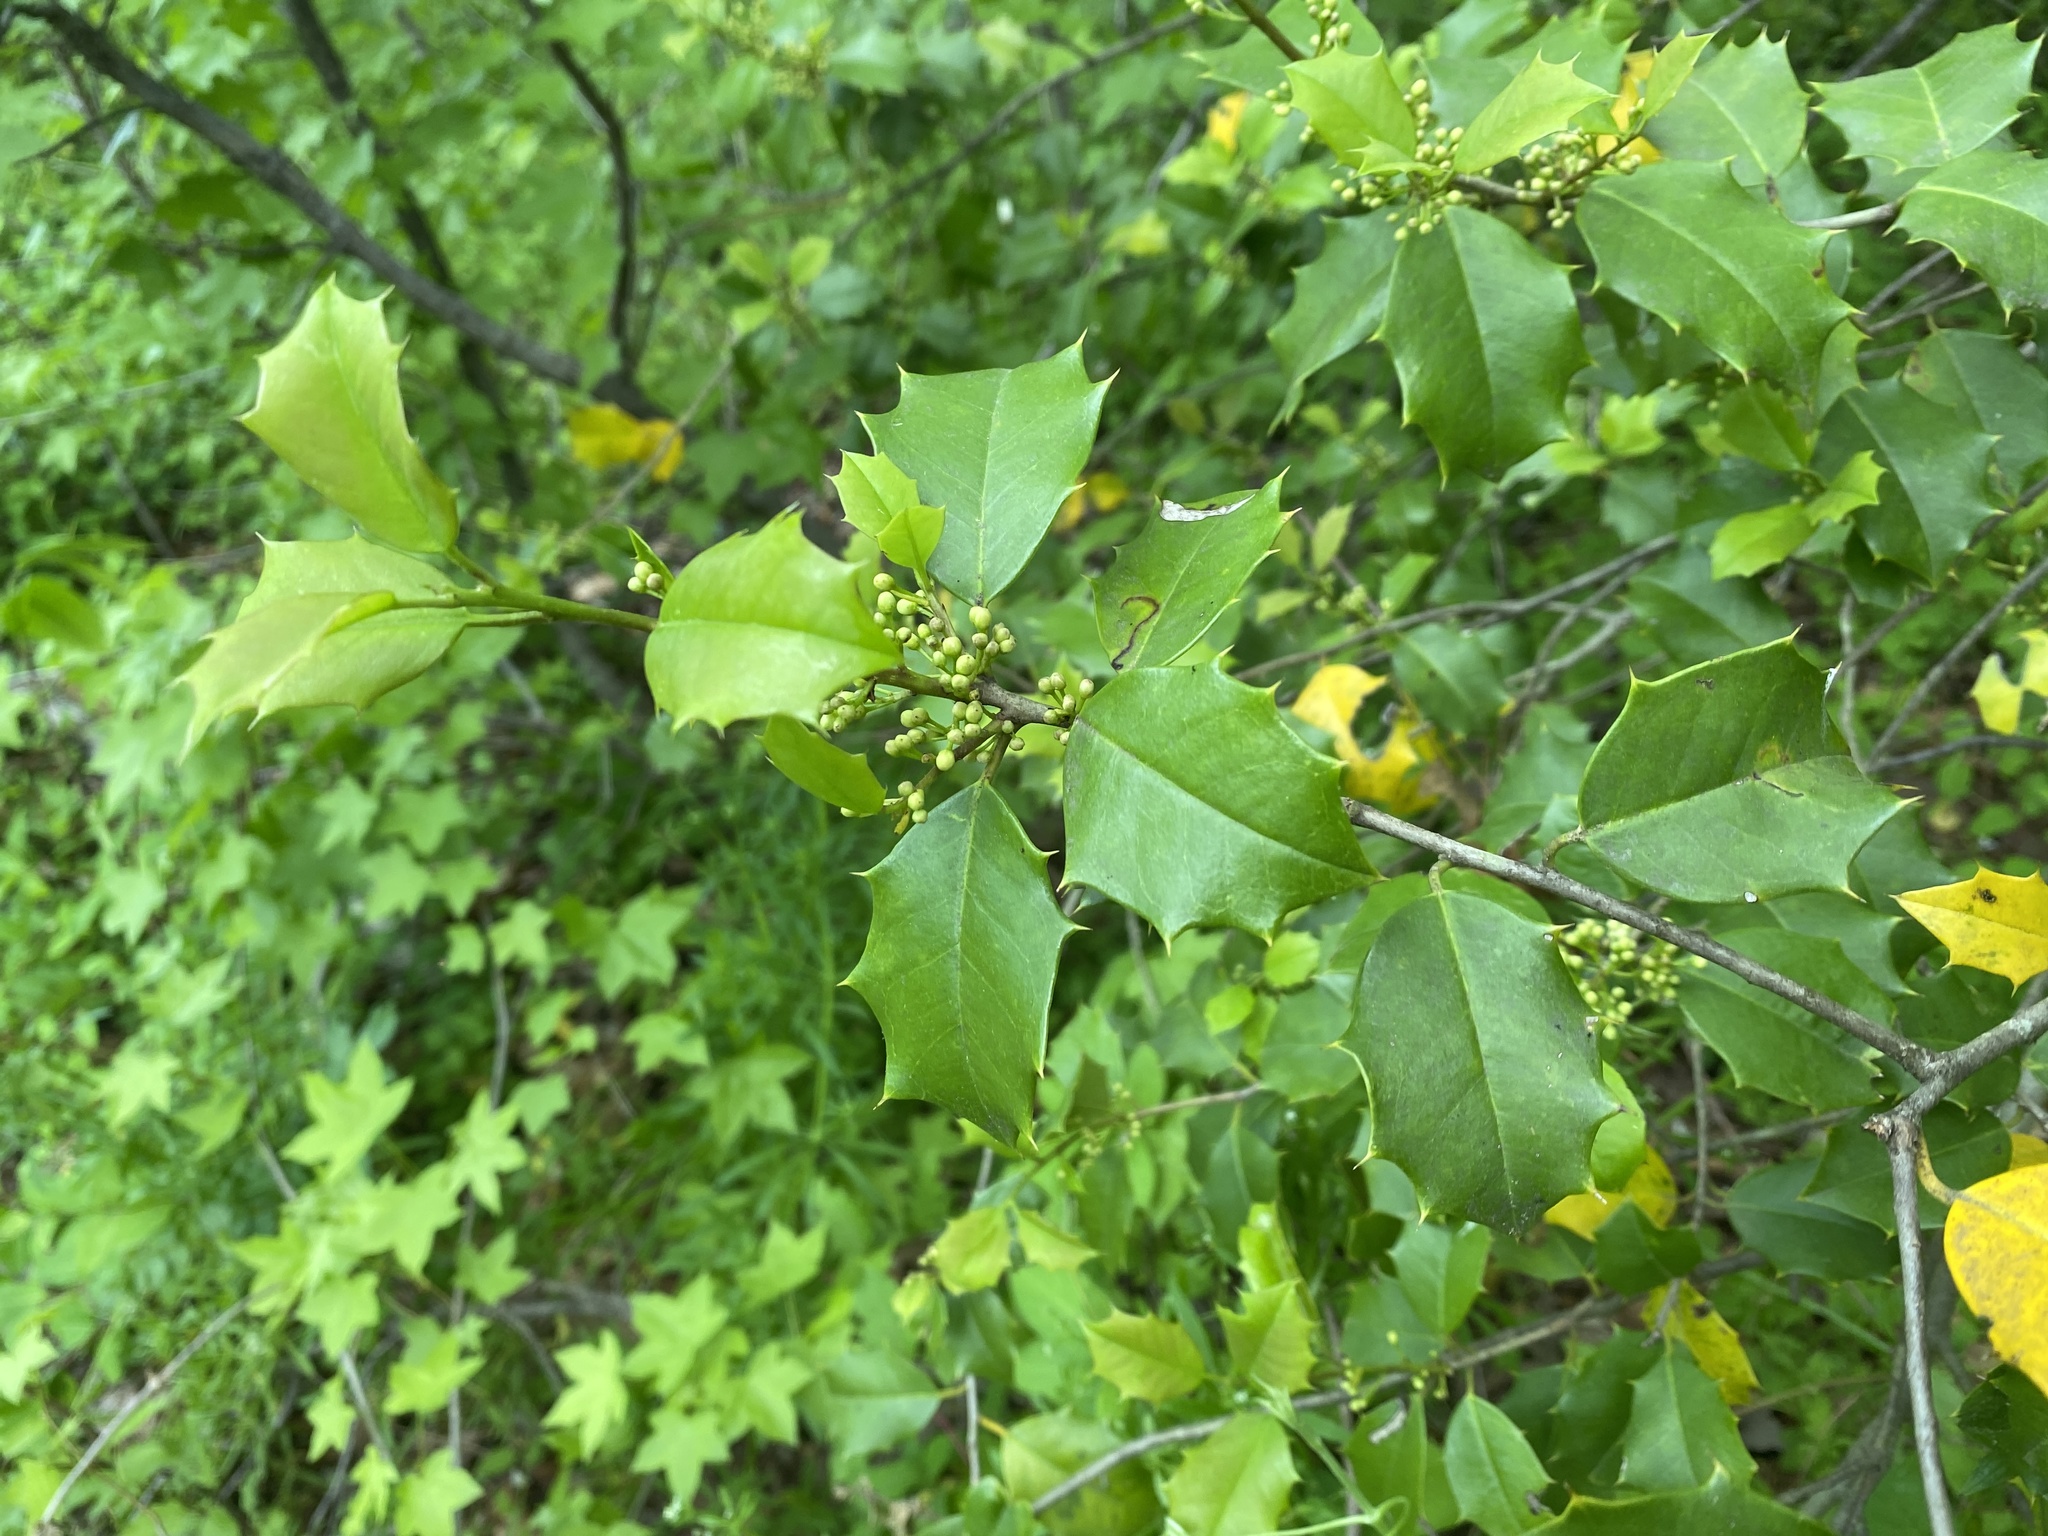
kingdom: Plantae
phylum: Tracheophyta
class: Magnoliopsida
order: Aquifoliales
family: Aquifoliaceae
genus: Ilex
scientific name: Ilex opaca
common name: American holly
